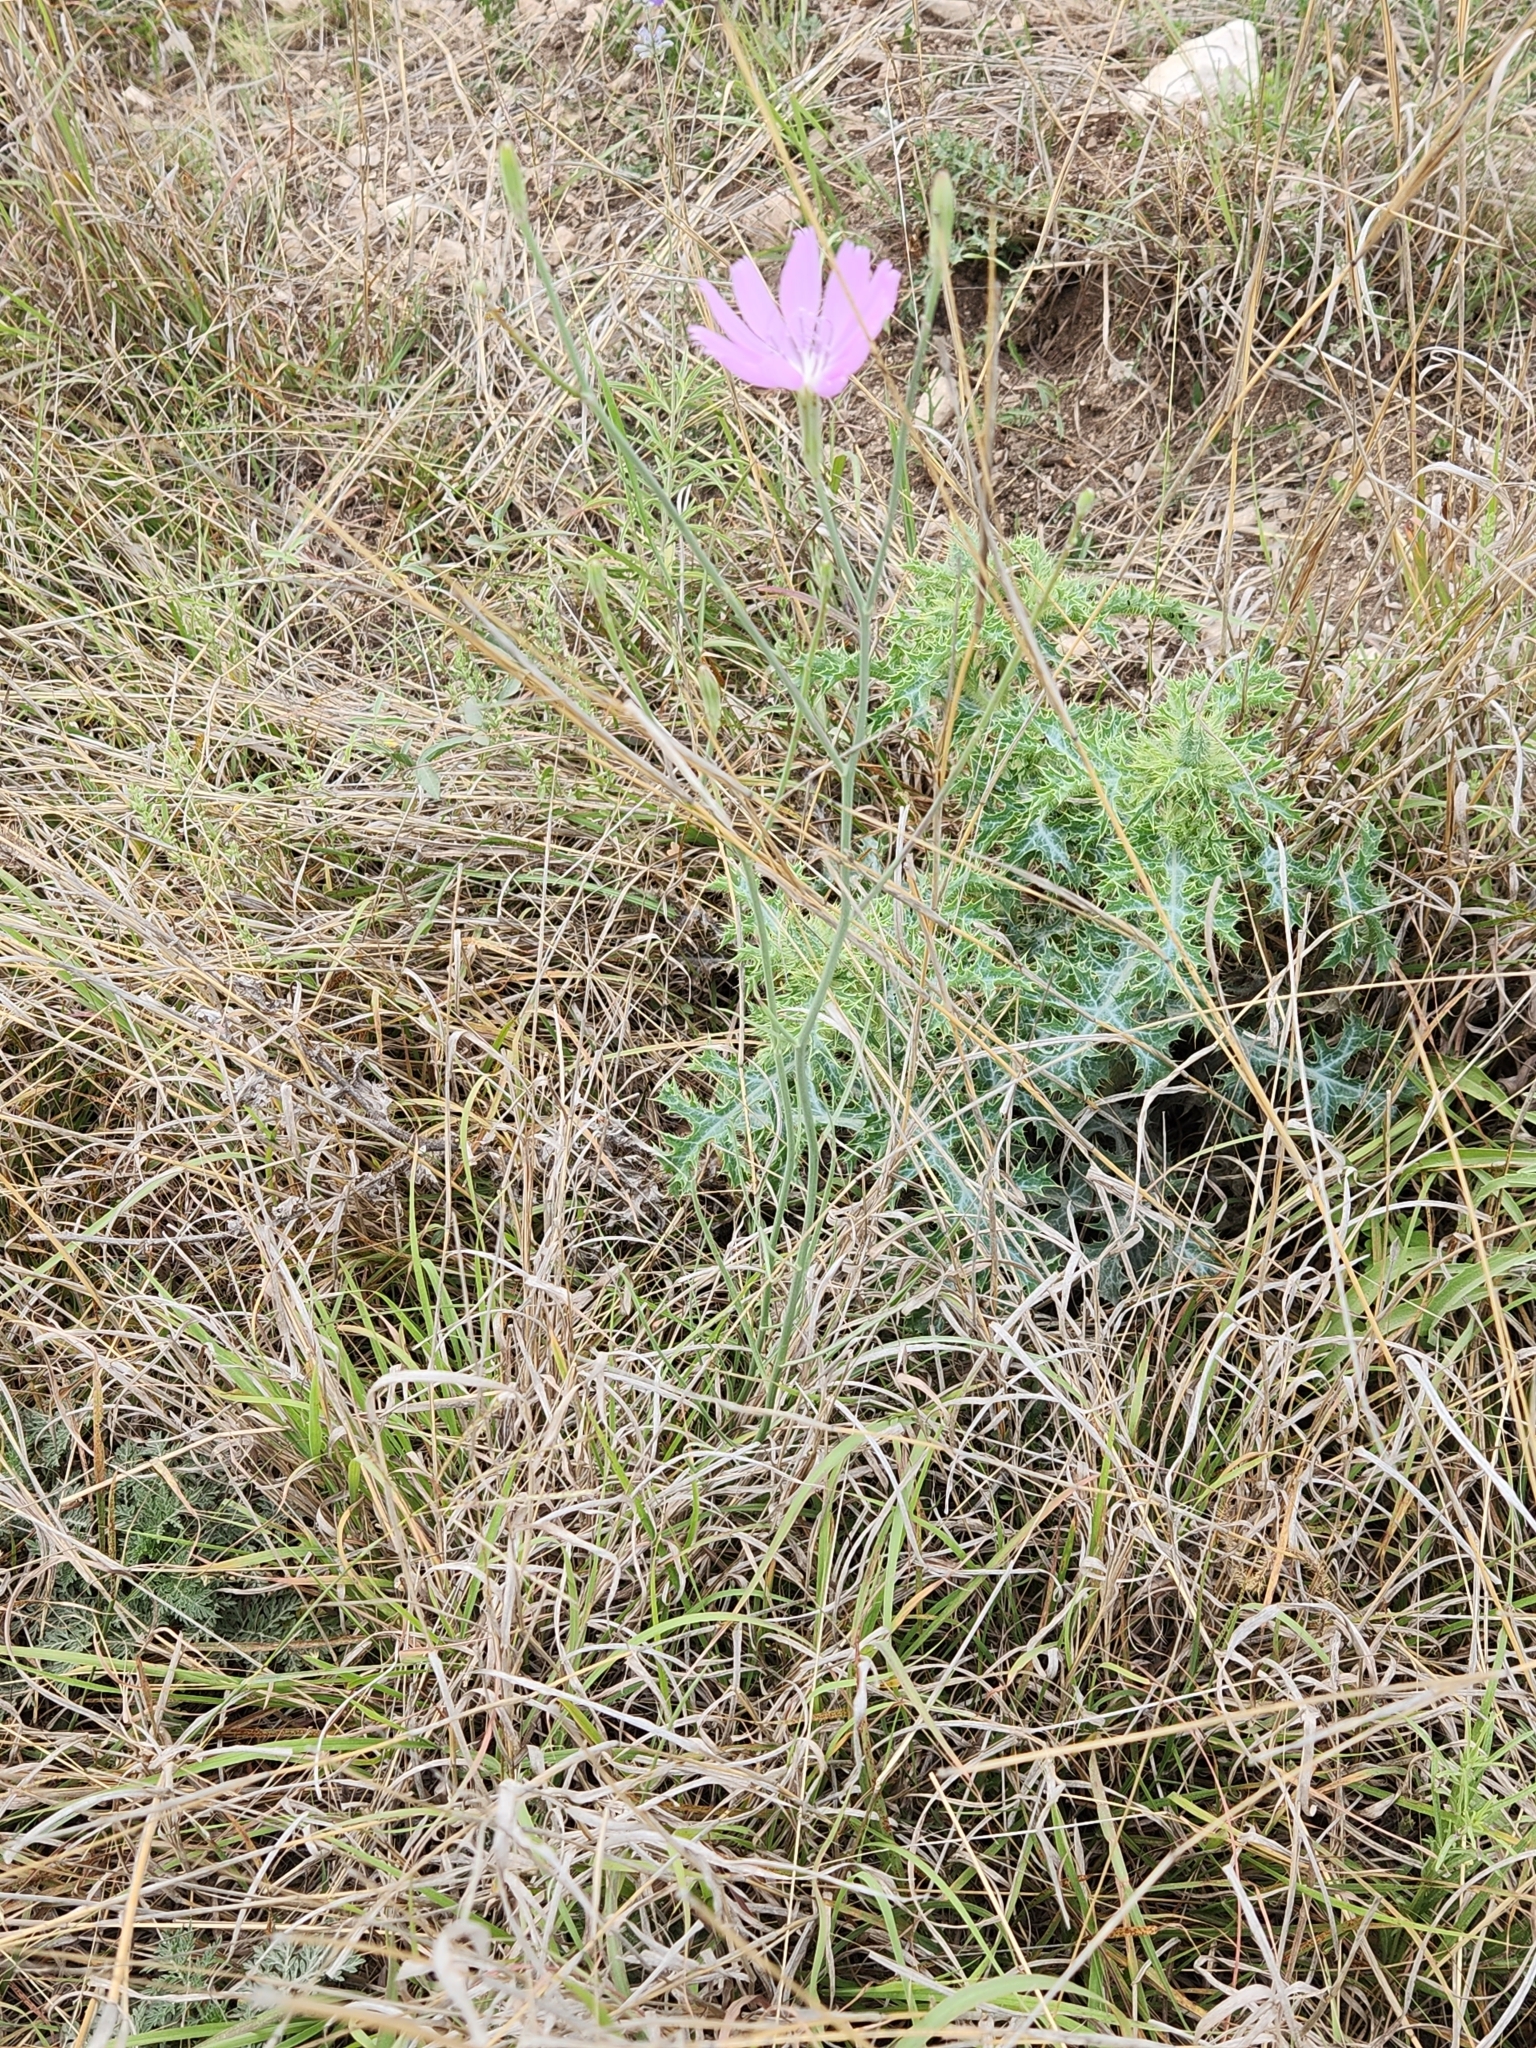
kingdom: Plantae
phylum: Tracheophyta
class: Magnoliopsida
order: Asterales
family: Asteraceae
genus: Lygodesmia
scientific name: Lygodesmia texana
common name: Texas skeleton-plant
